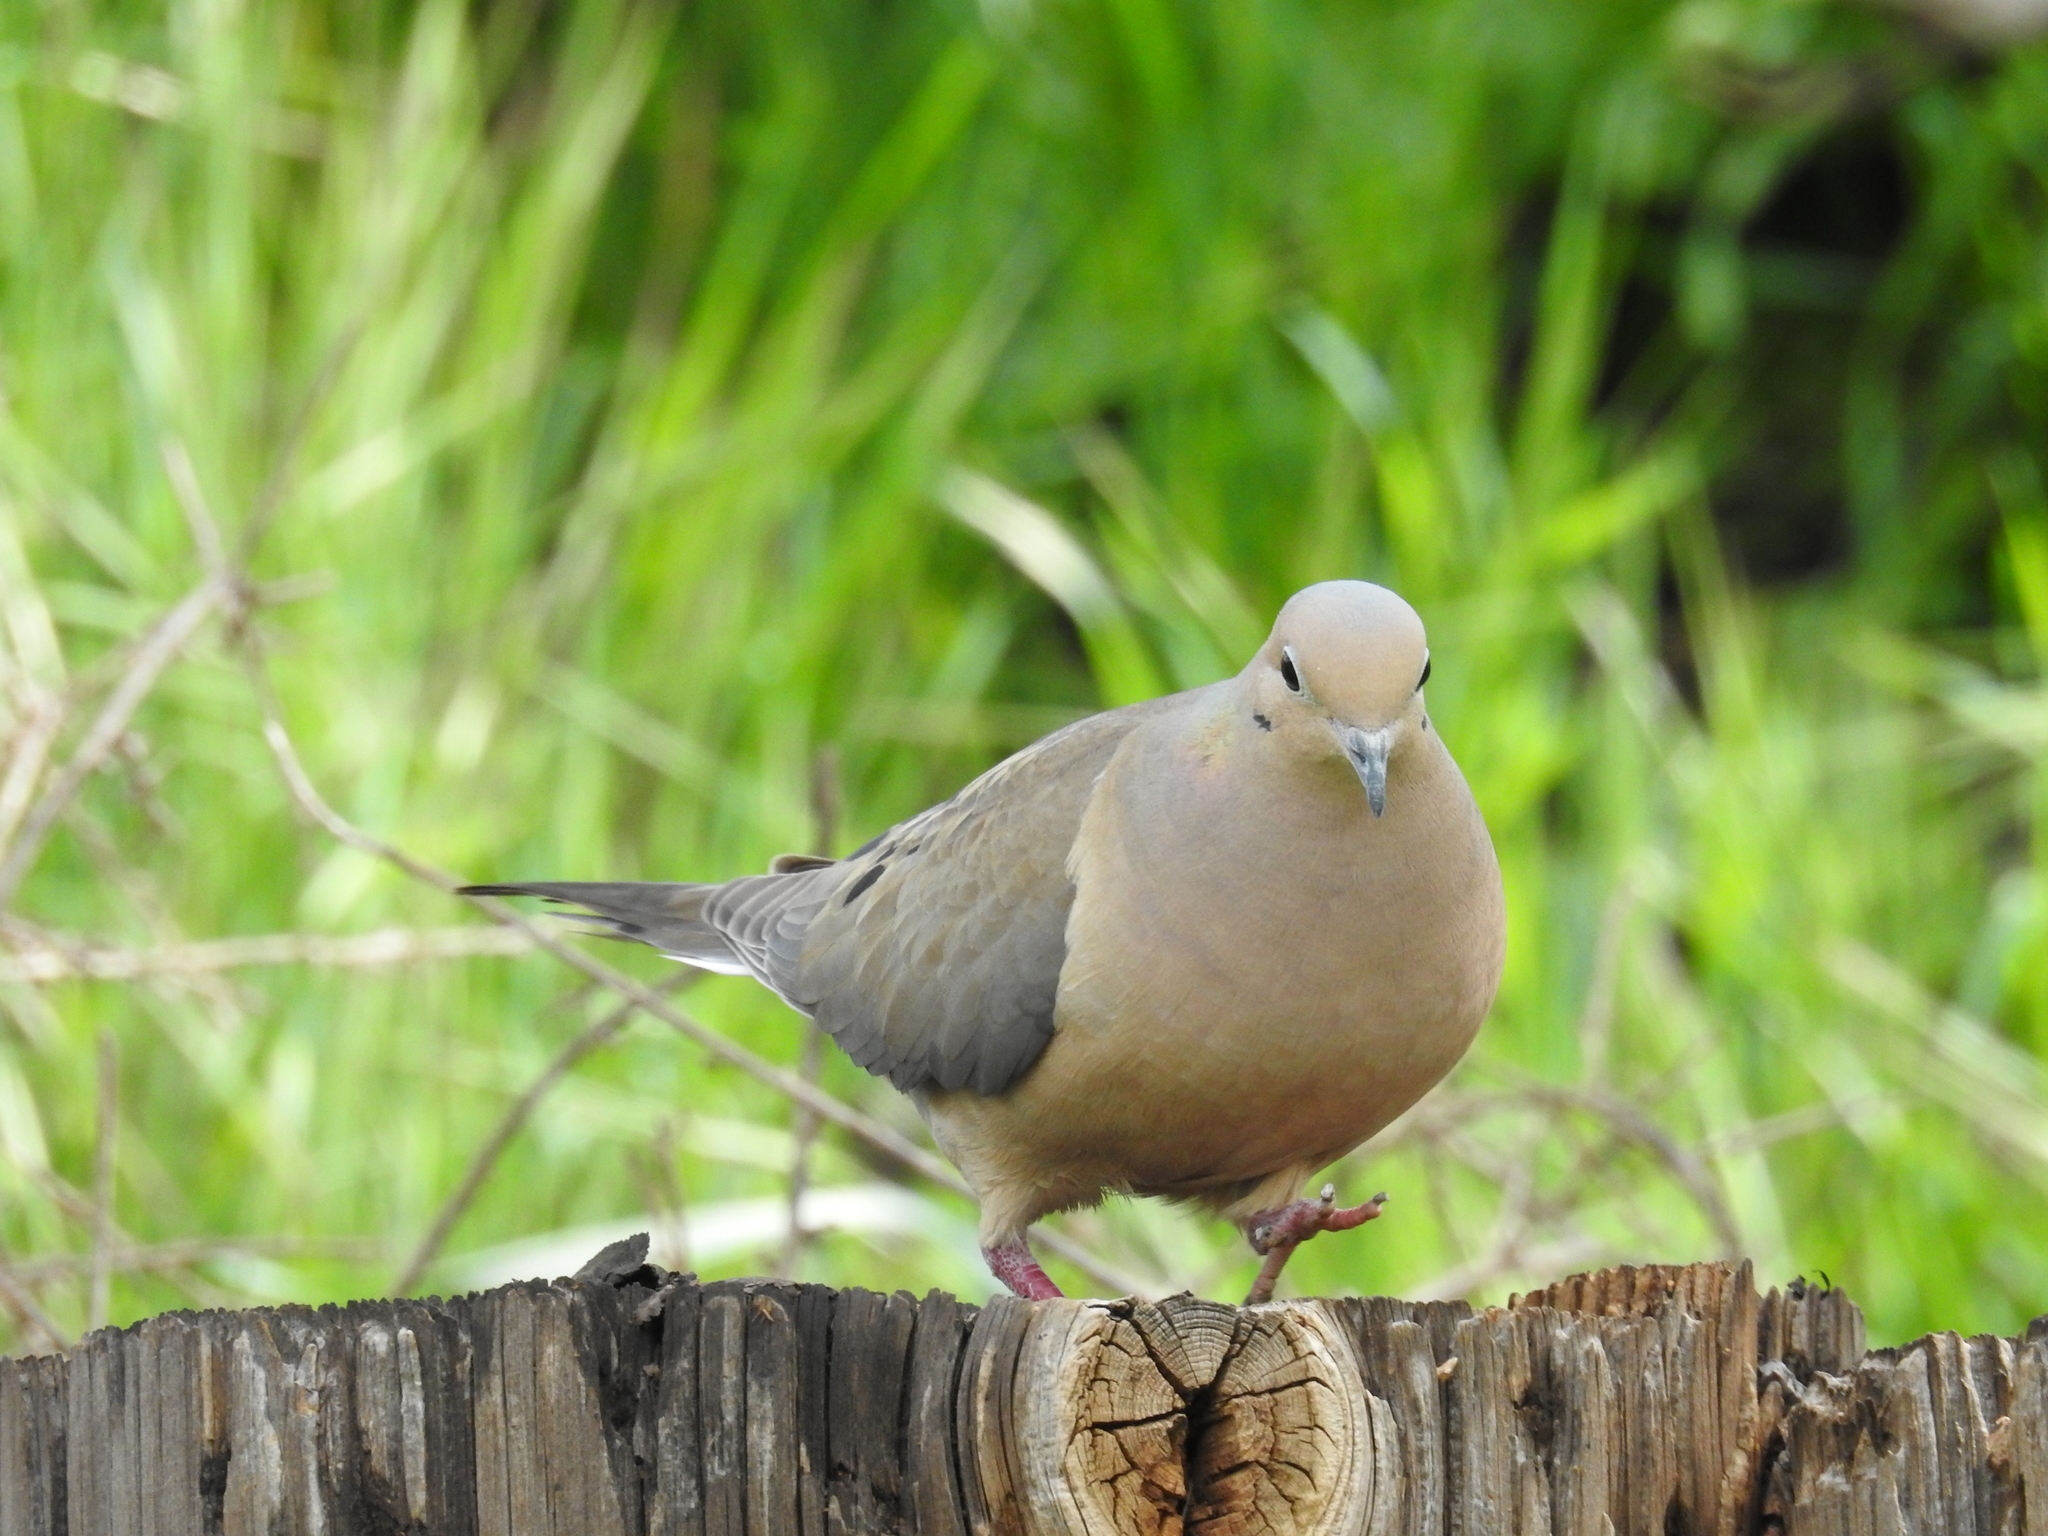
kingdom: Animalia
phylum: Chordata
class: Aves
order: Columbiformes
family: Columbidae
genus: Zenaida
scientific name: Zenaida macroura
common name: Mourning dove
